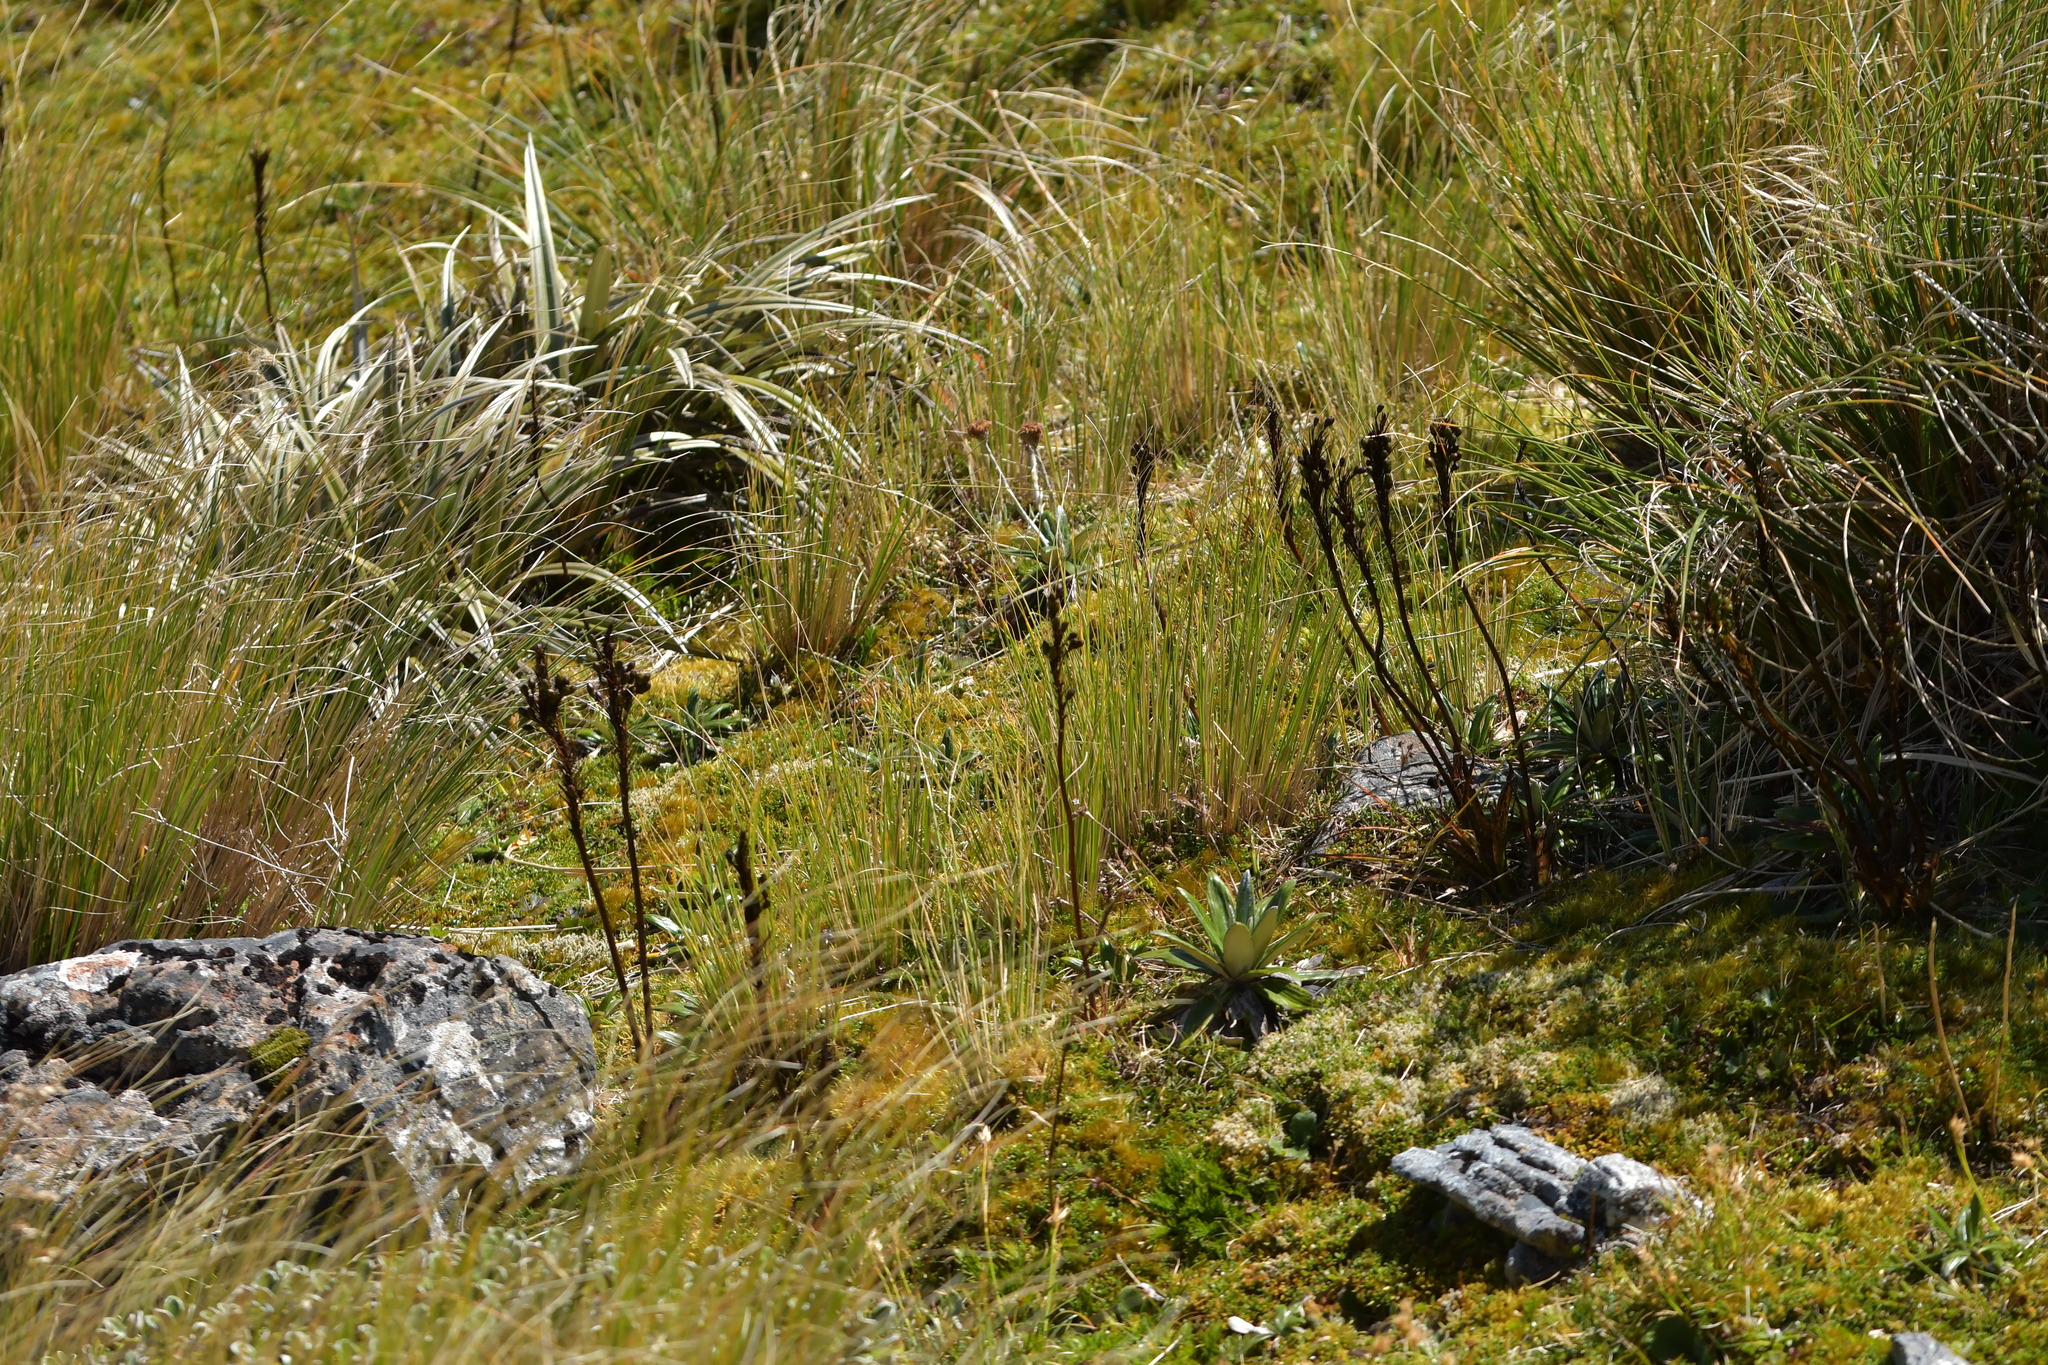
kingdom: Plantae
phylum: Tracheophyta
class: Liliopsida
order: Asparagales
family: Asphodelaceae
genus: Bulbinella
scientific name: Bulbinella hookeri
